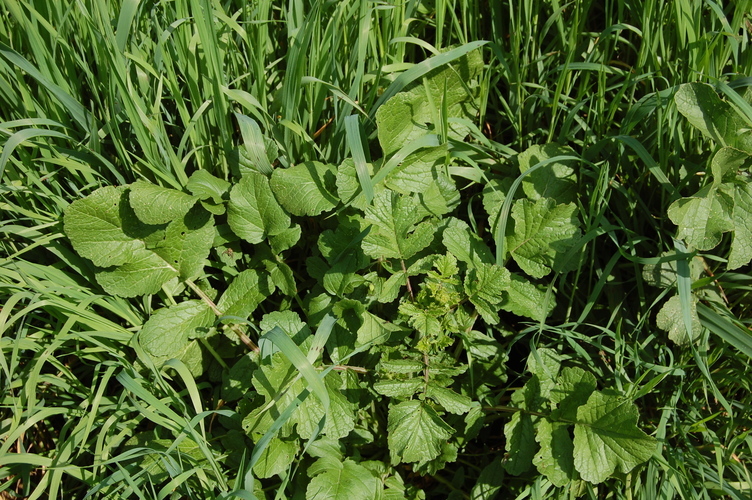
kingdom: Plantae
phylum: Tracheophyta
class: Magnoliopsida
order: Brassicales
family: Brassicaceae
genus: Raphanus
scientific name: Raphanus raphanistrum
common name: Wild radish
